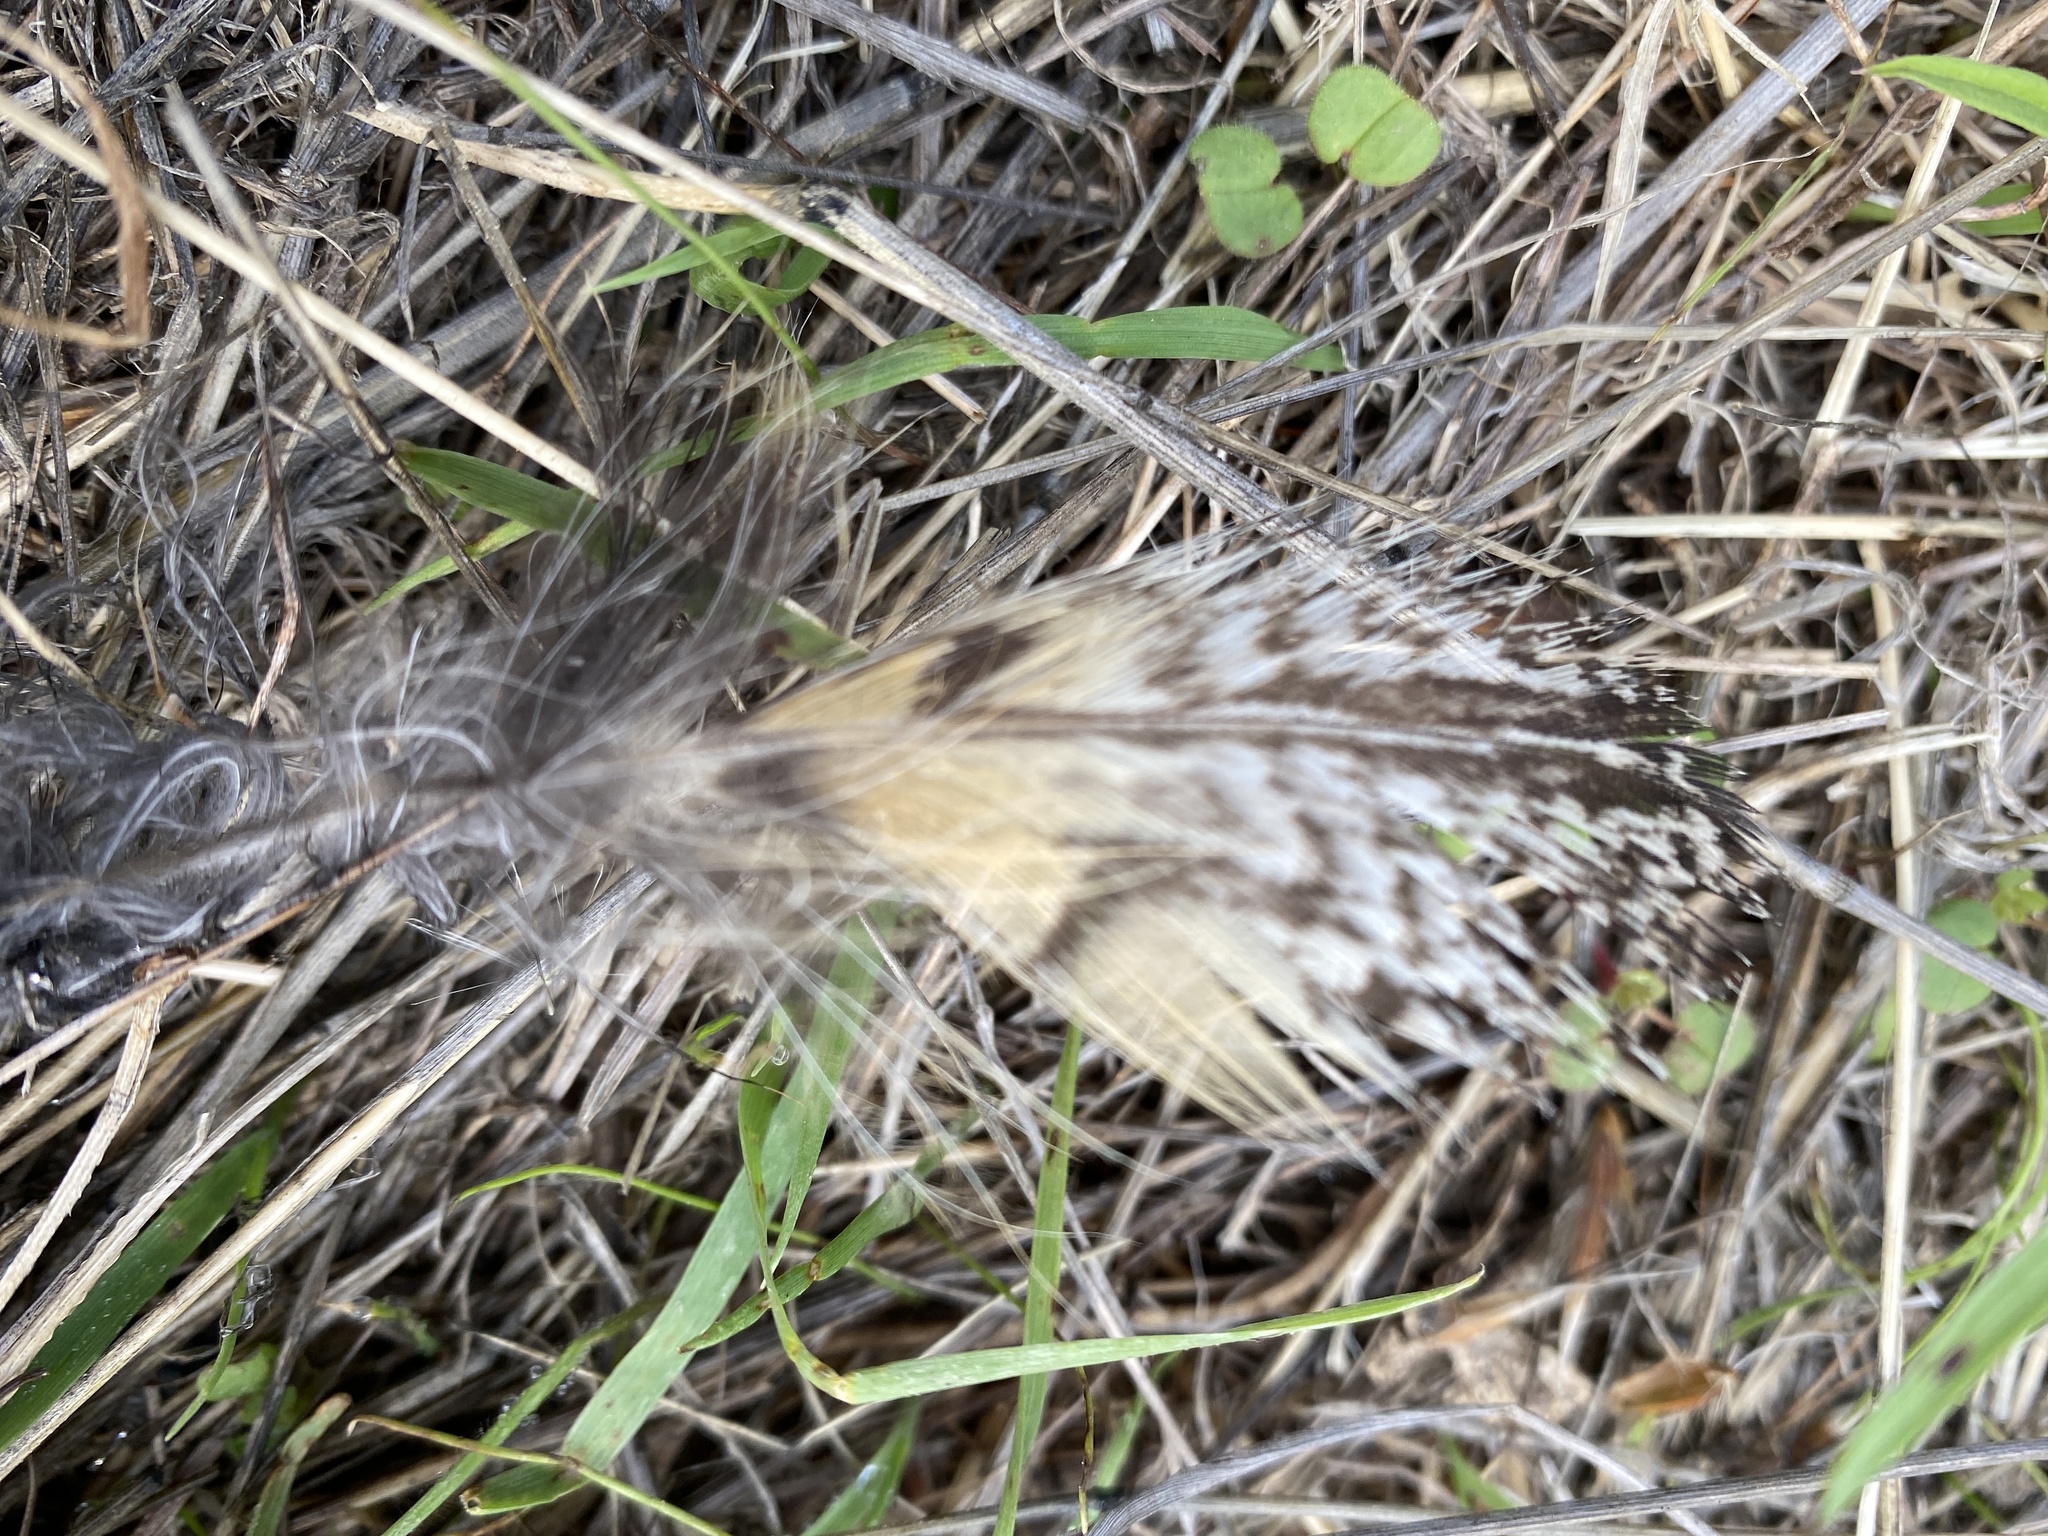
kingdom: Animalia
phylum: Chordata
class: Aves
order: Strigiformes
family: Strigidae
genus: Bubo
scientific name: Bubo virginianus
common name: Great horned owl
